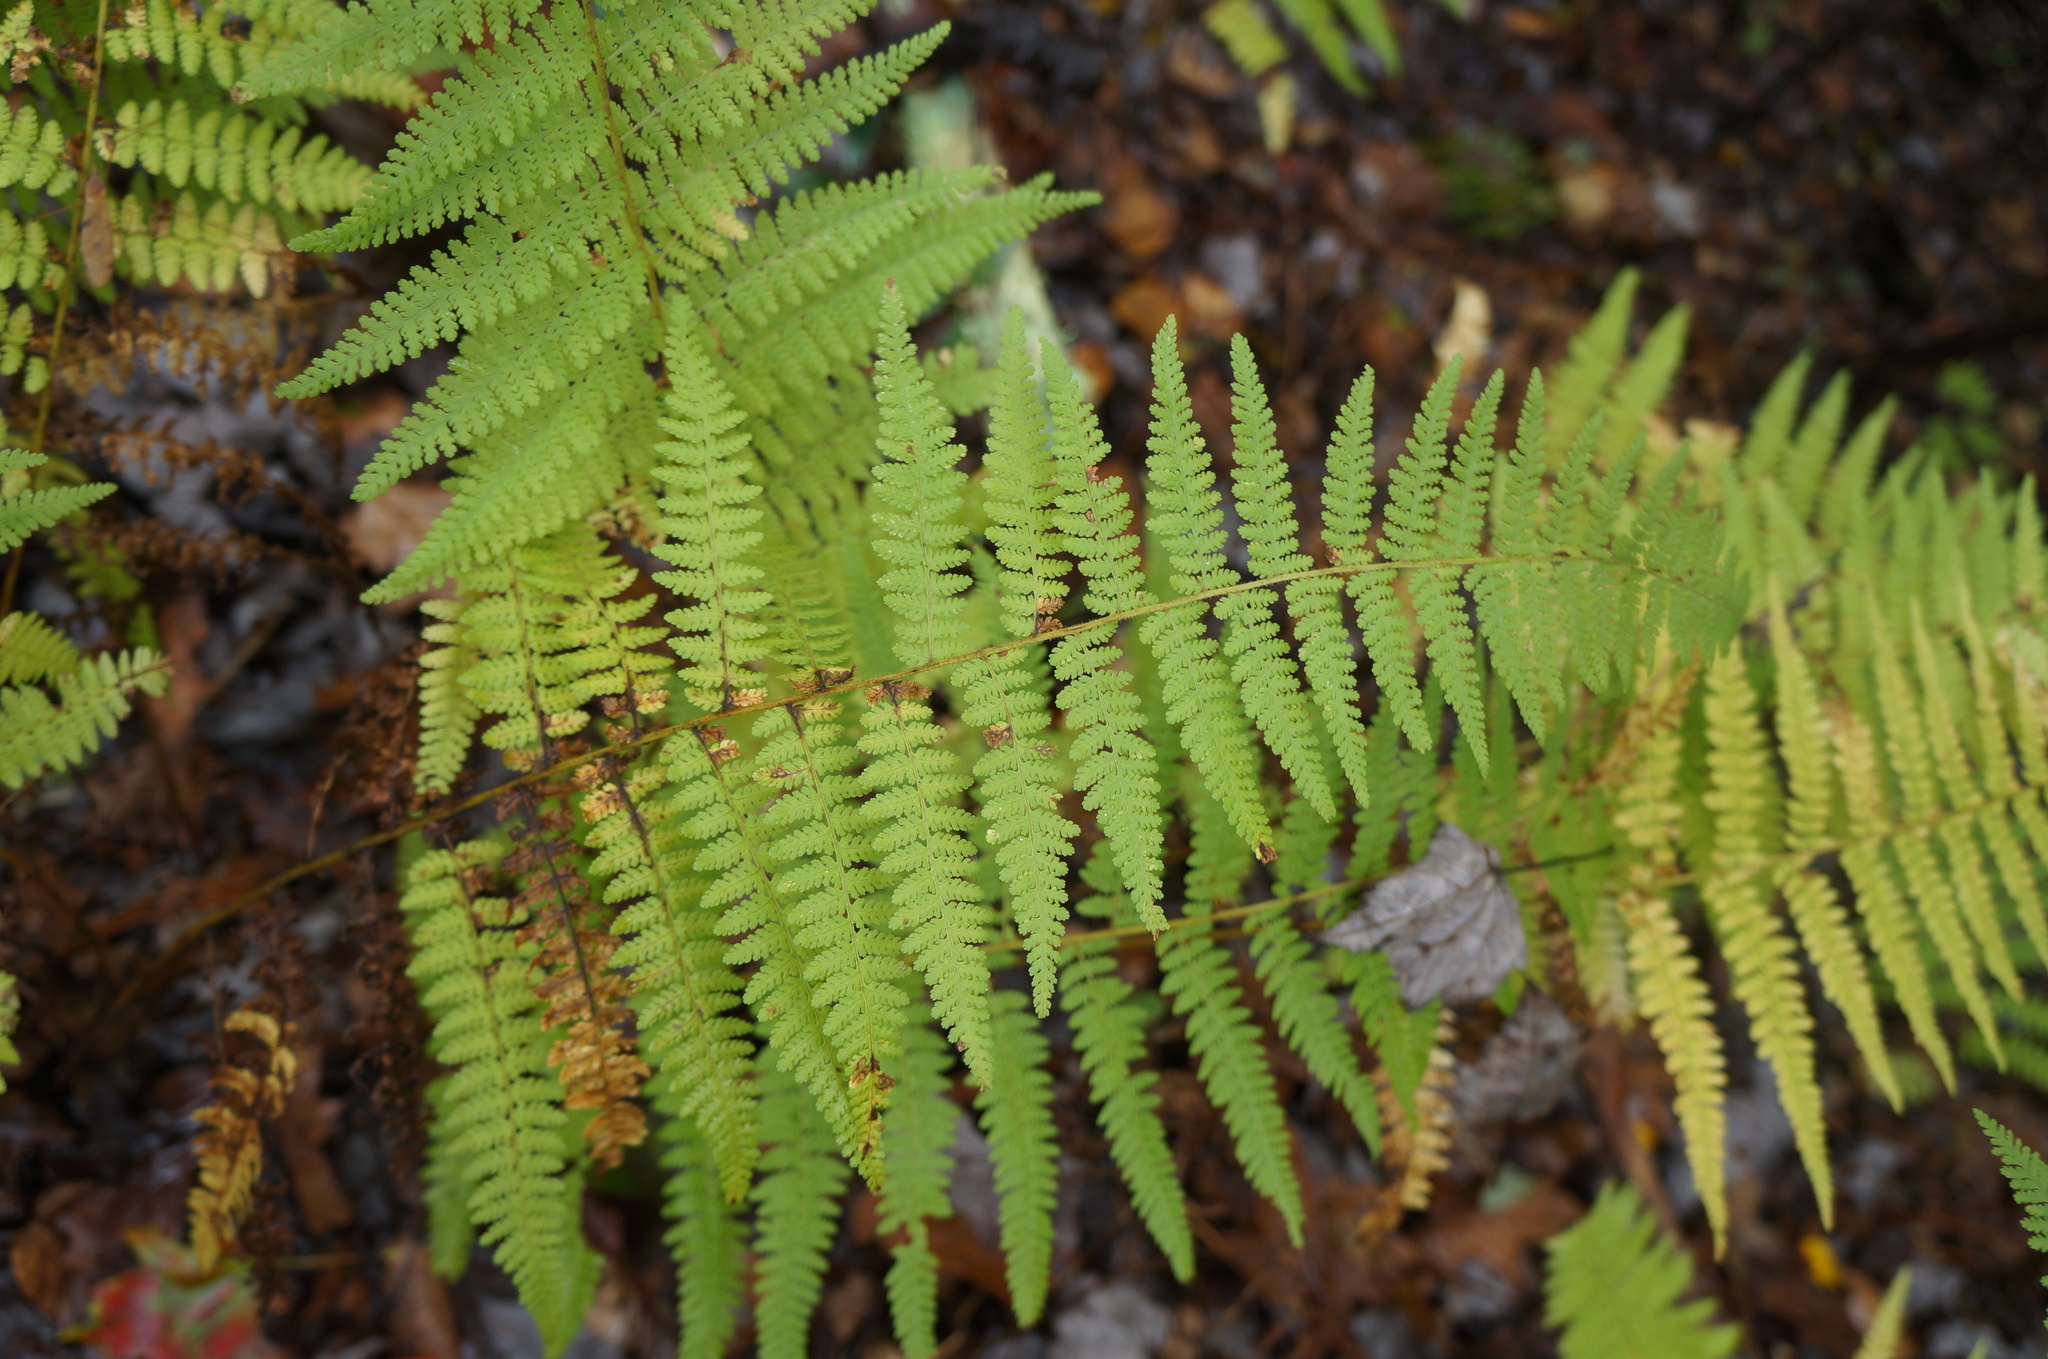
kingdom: Plantae
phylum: Tracheophyta
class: Polypodiopsida
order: Polypodiales
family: Dennstaedtiaceae
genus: Sitobolium
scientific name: Sitobolium punctilobum
